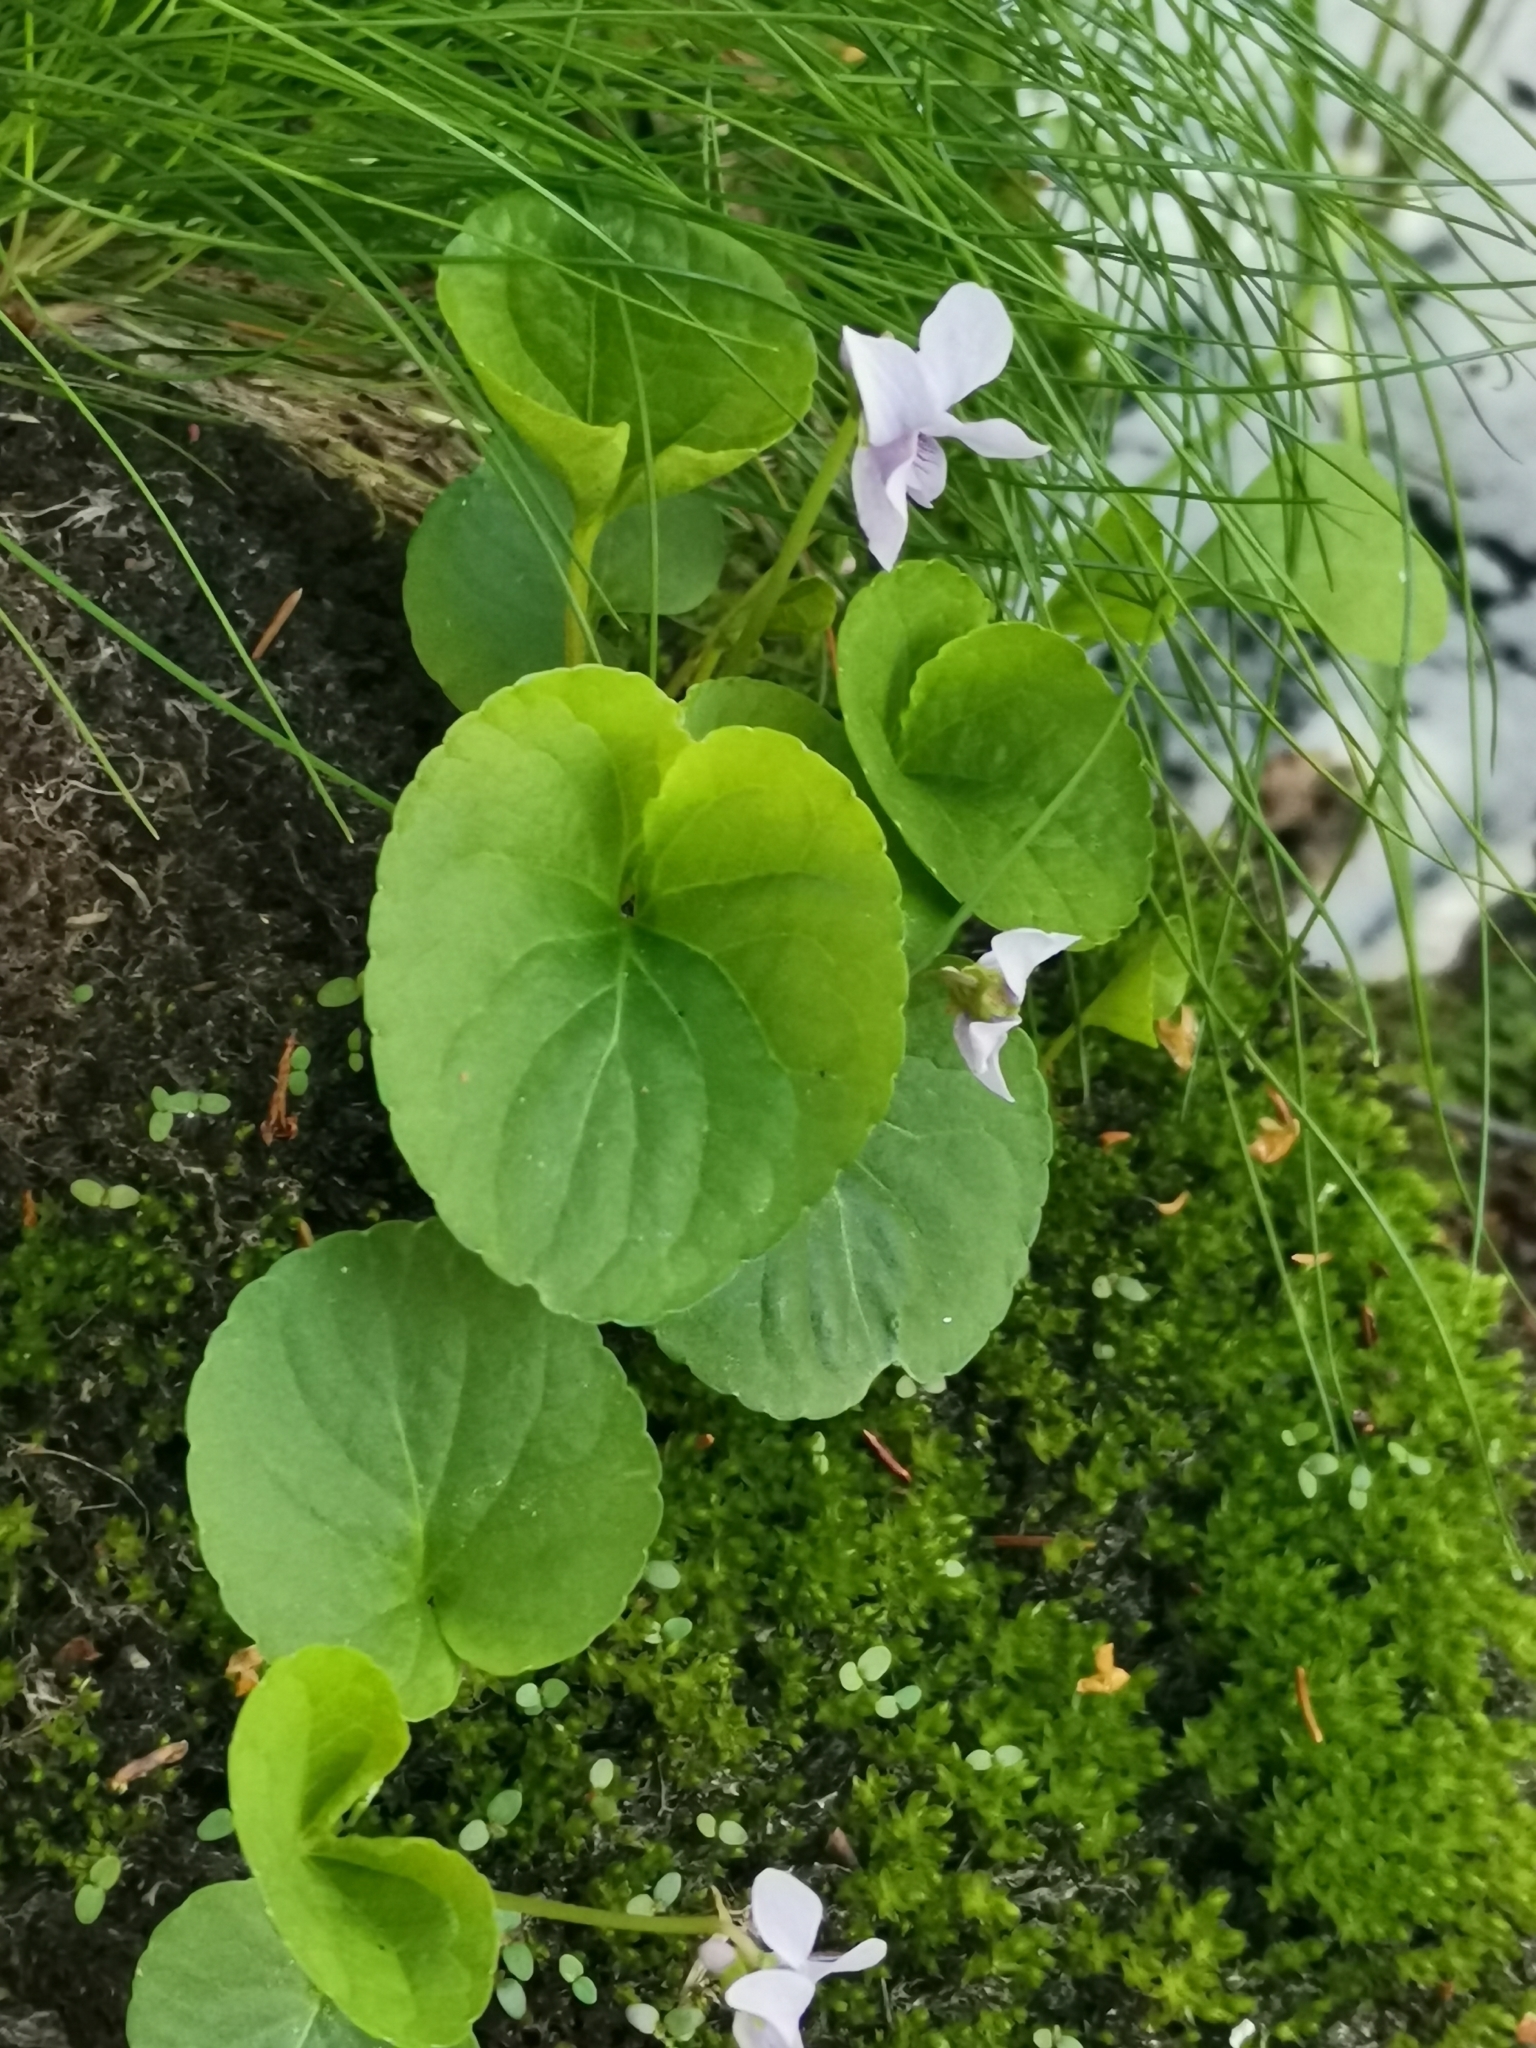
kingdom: Plantae
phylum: Tracheophyta
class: Magnoliopsida
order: Malpighiales
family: Violaceae
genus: Viola
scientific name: Viola palustris
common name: Marsh violet
